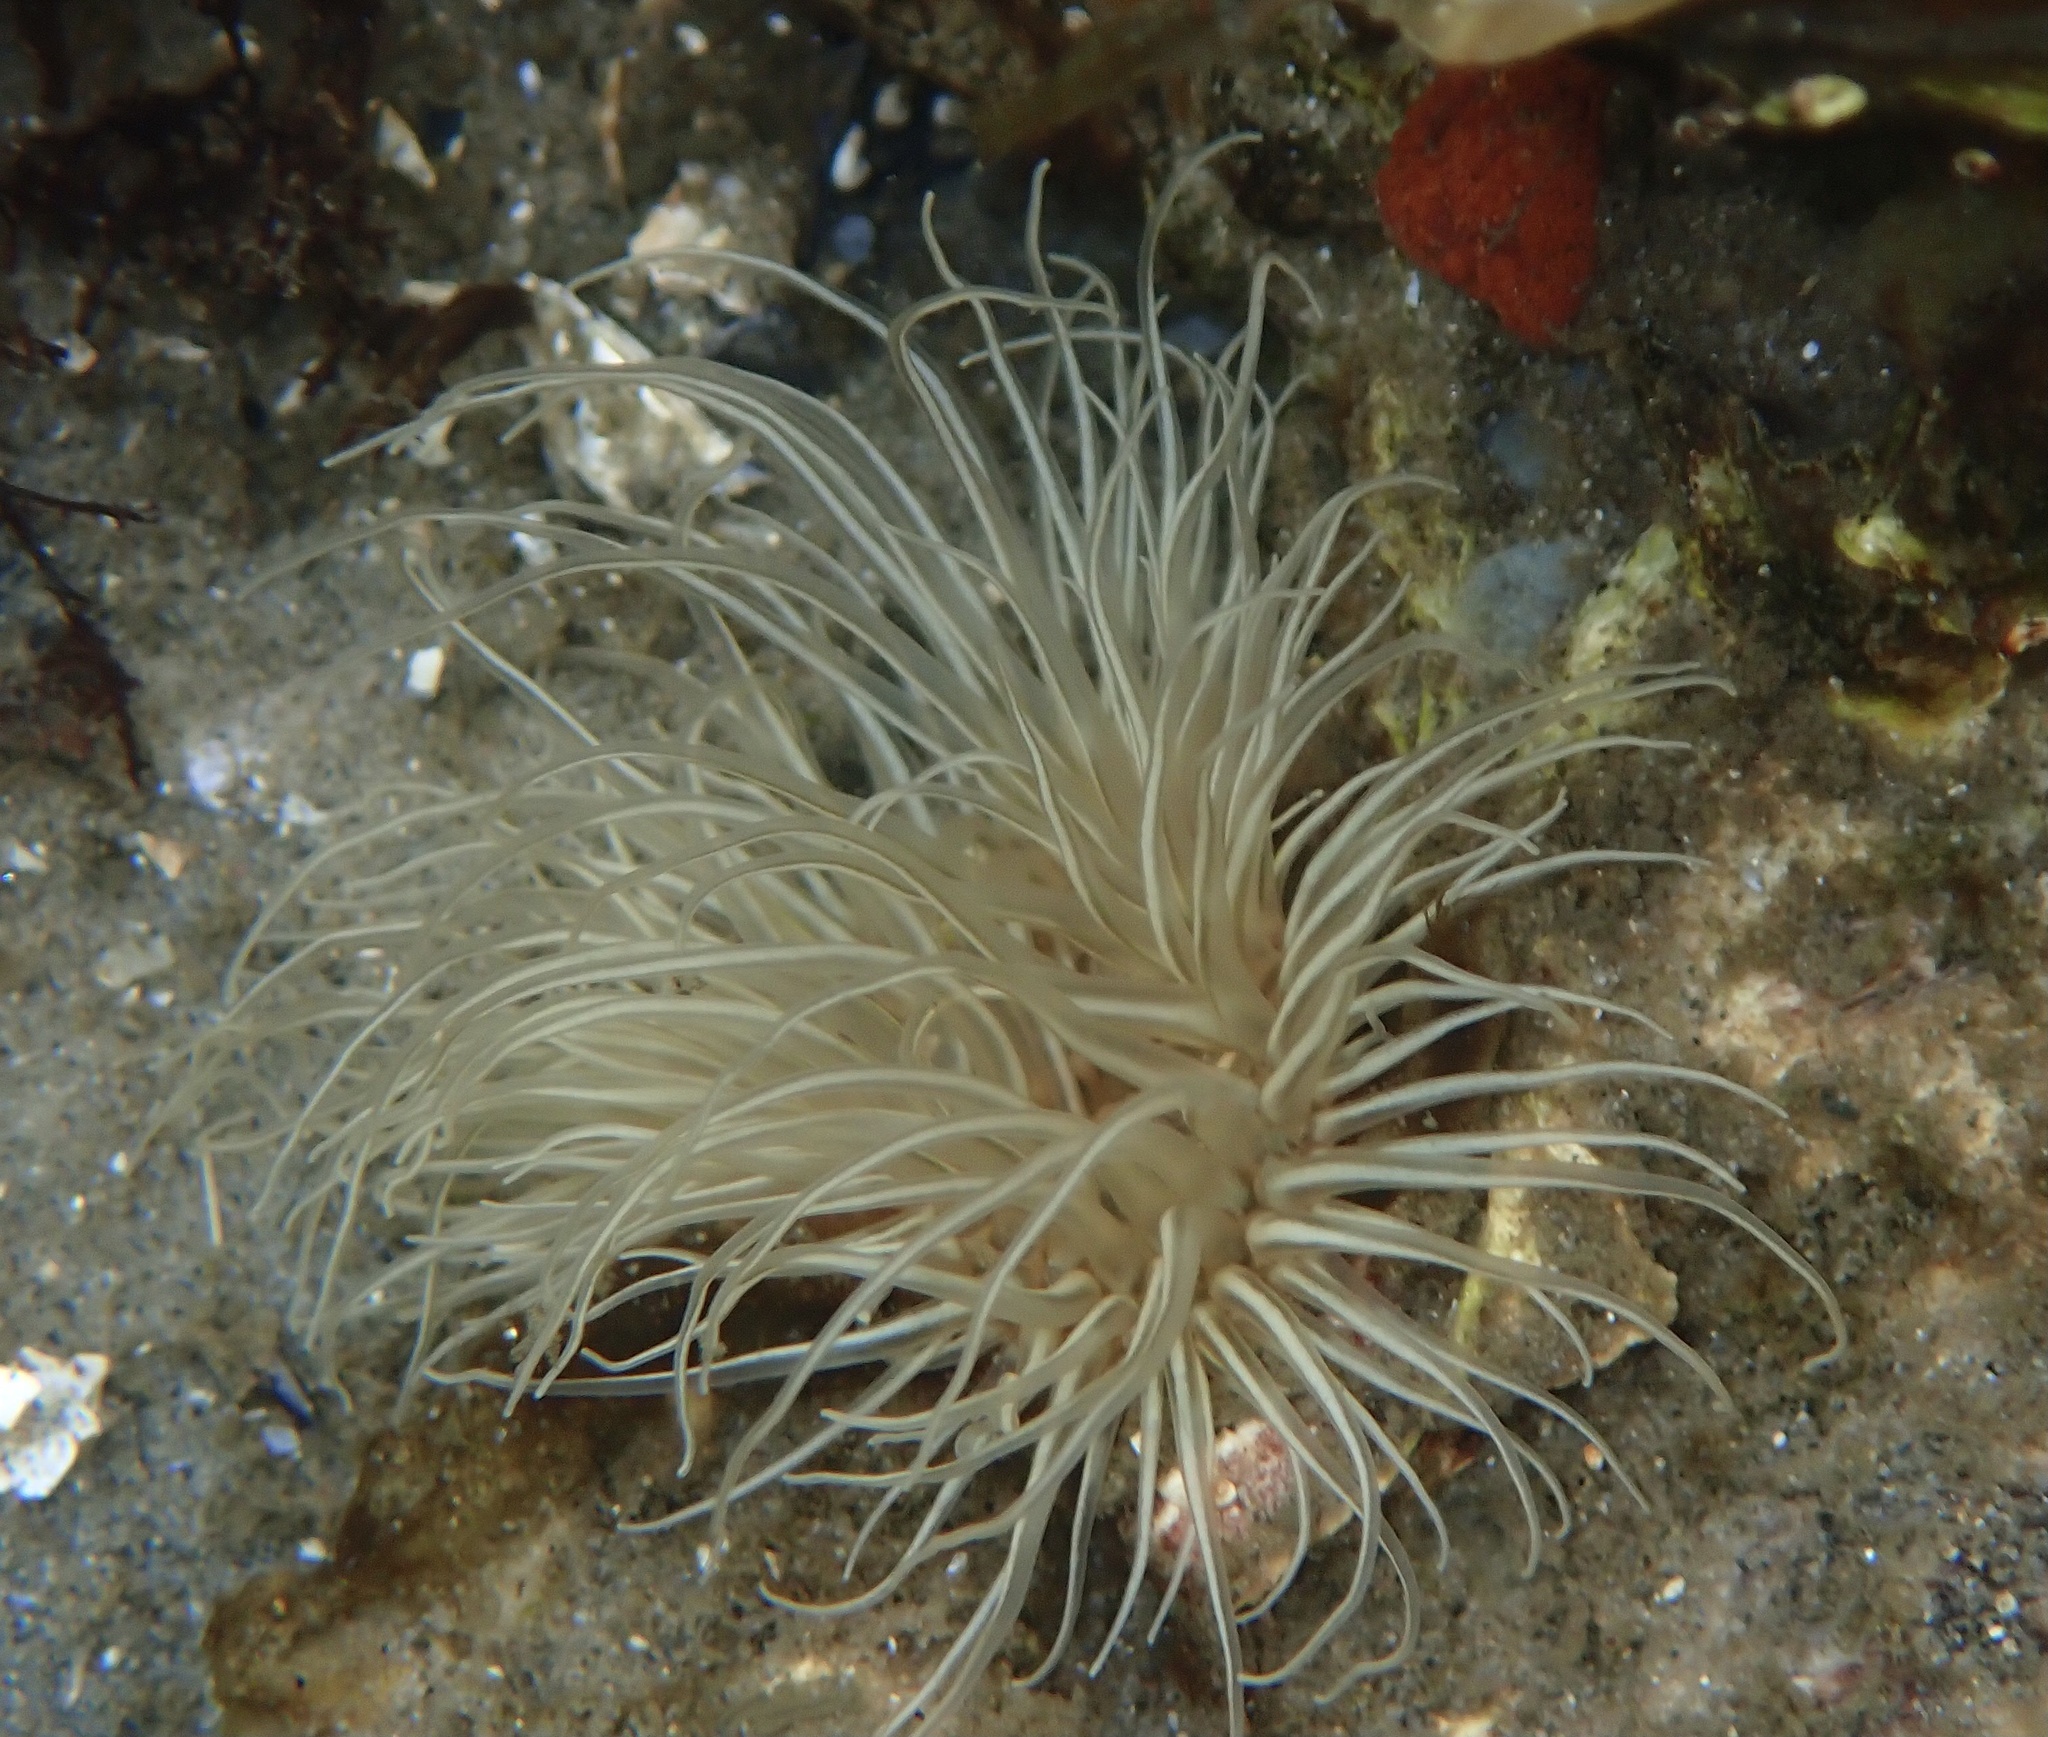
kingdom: Animalia
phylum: Cnidaria
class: Anthozoa
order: Actiniaria
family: Sagartiidae
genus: Sagartia
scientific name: Sagartia undata
